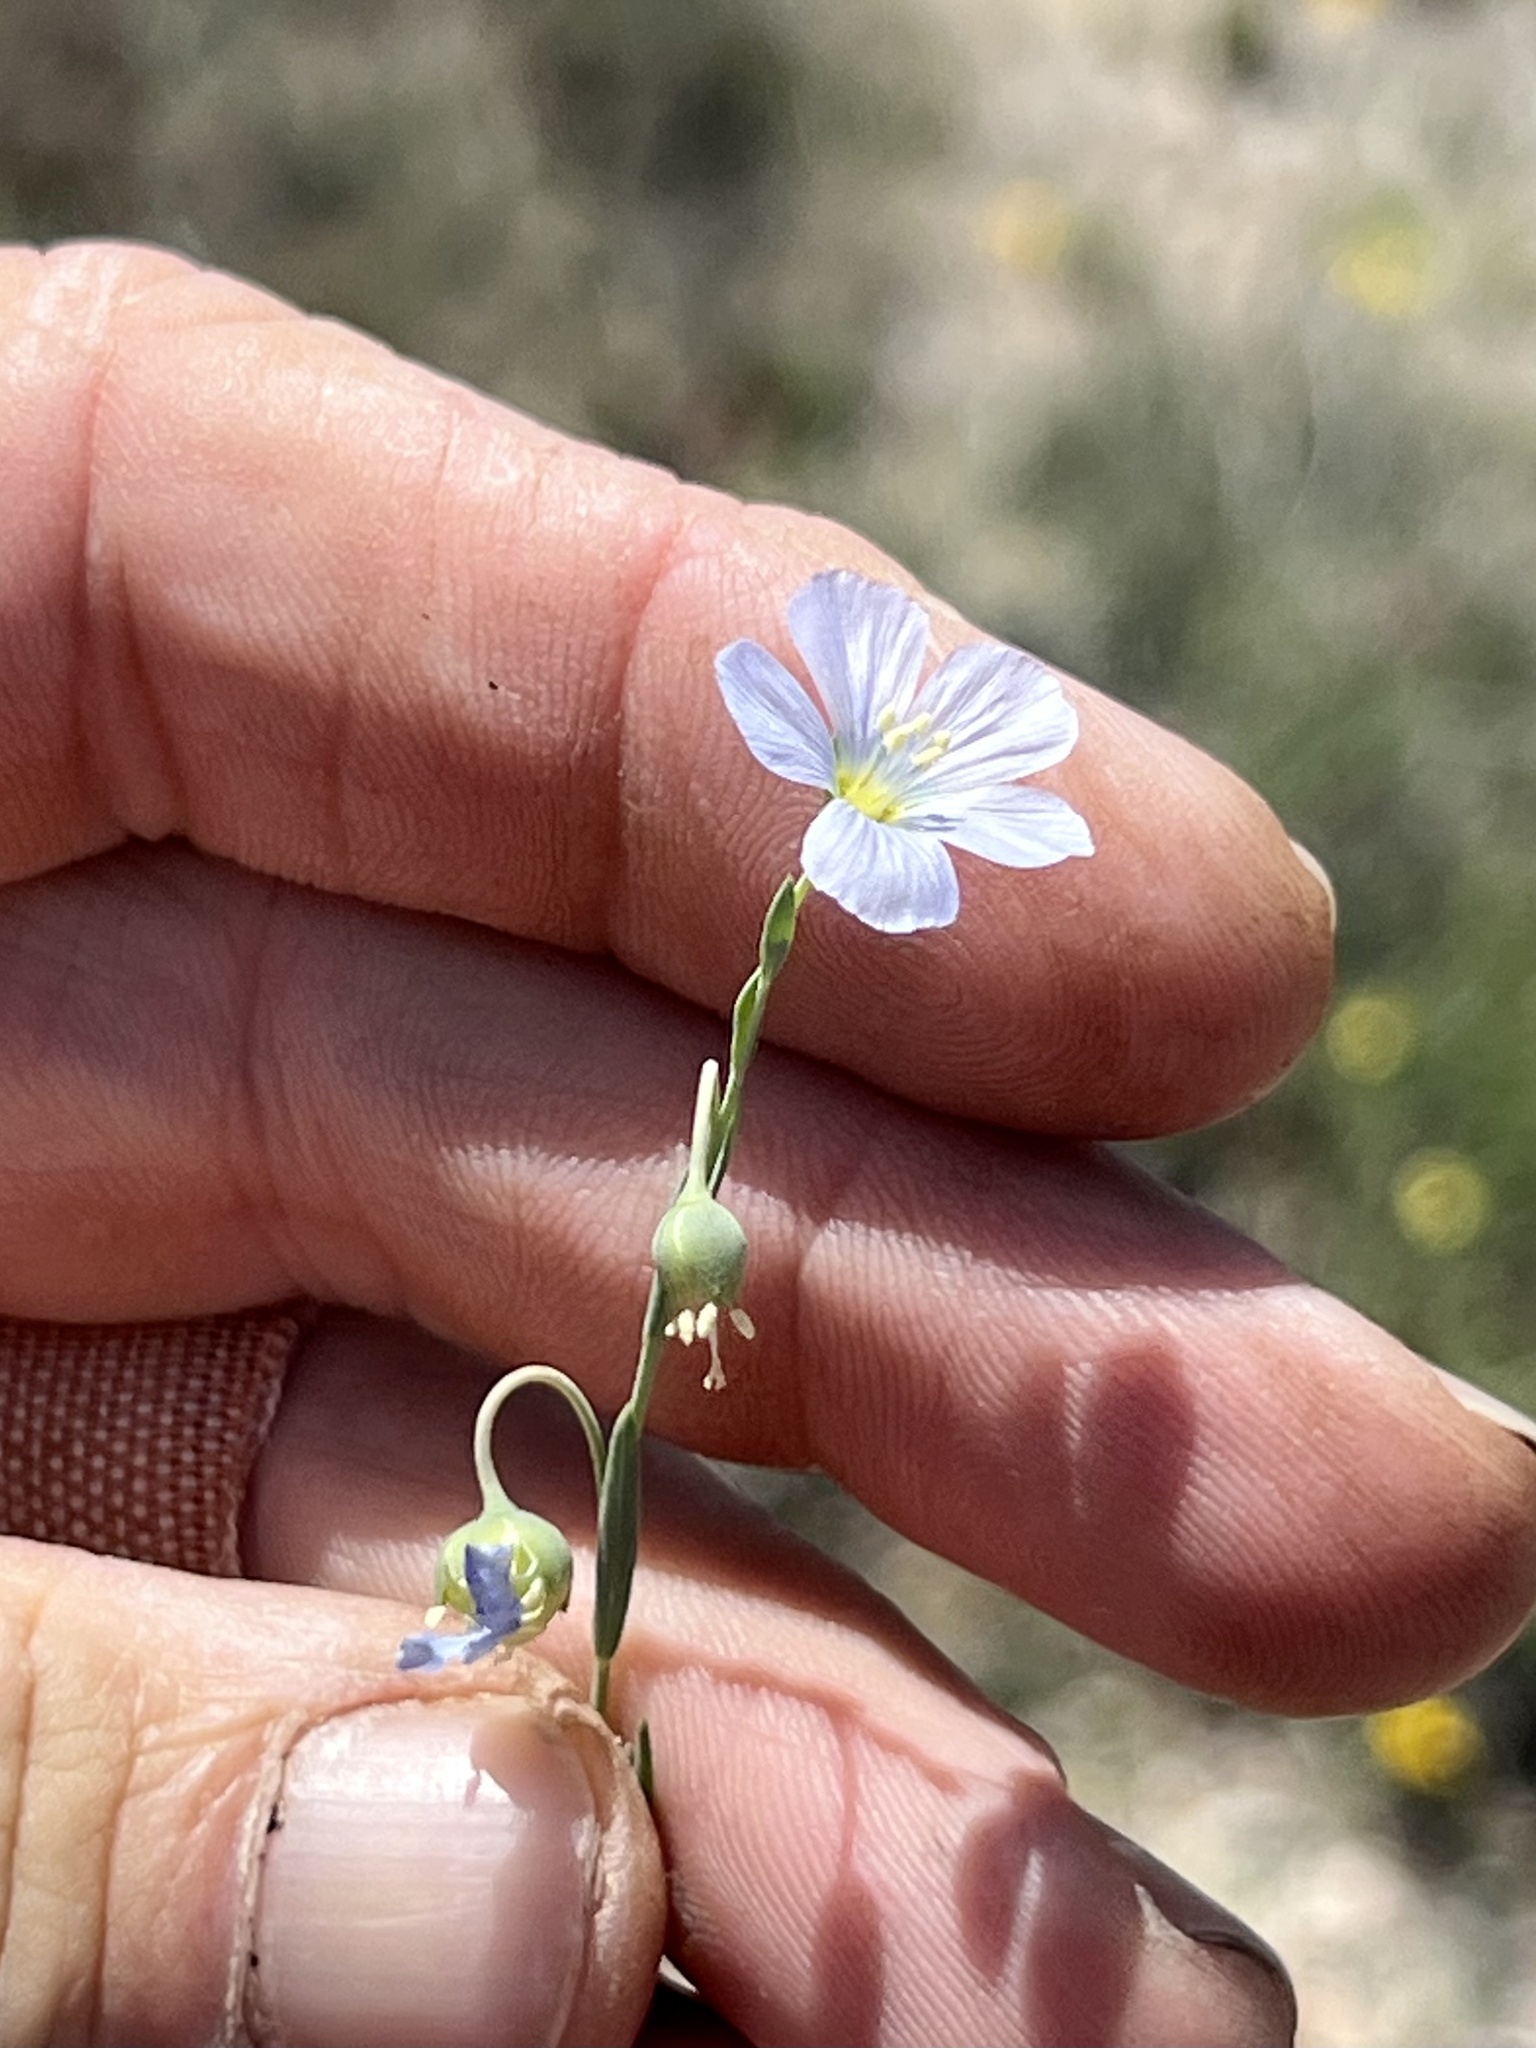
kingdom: Plantae
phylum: Tracheophyta
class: Magnoliopsida
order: Malpighiales
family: Linaceae
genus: Linum
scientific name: Linum lewisii
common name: Prairie flax
